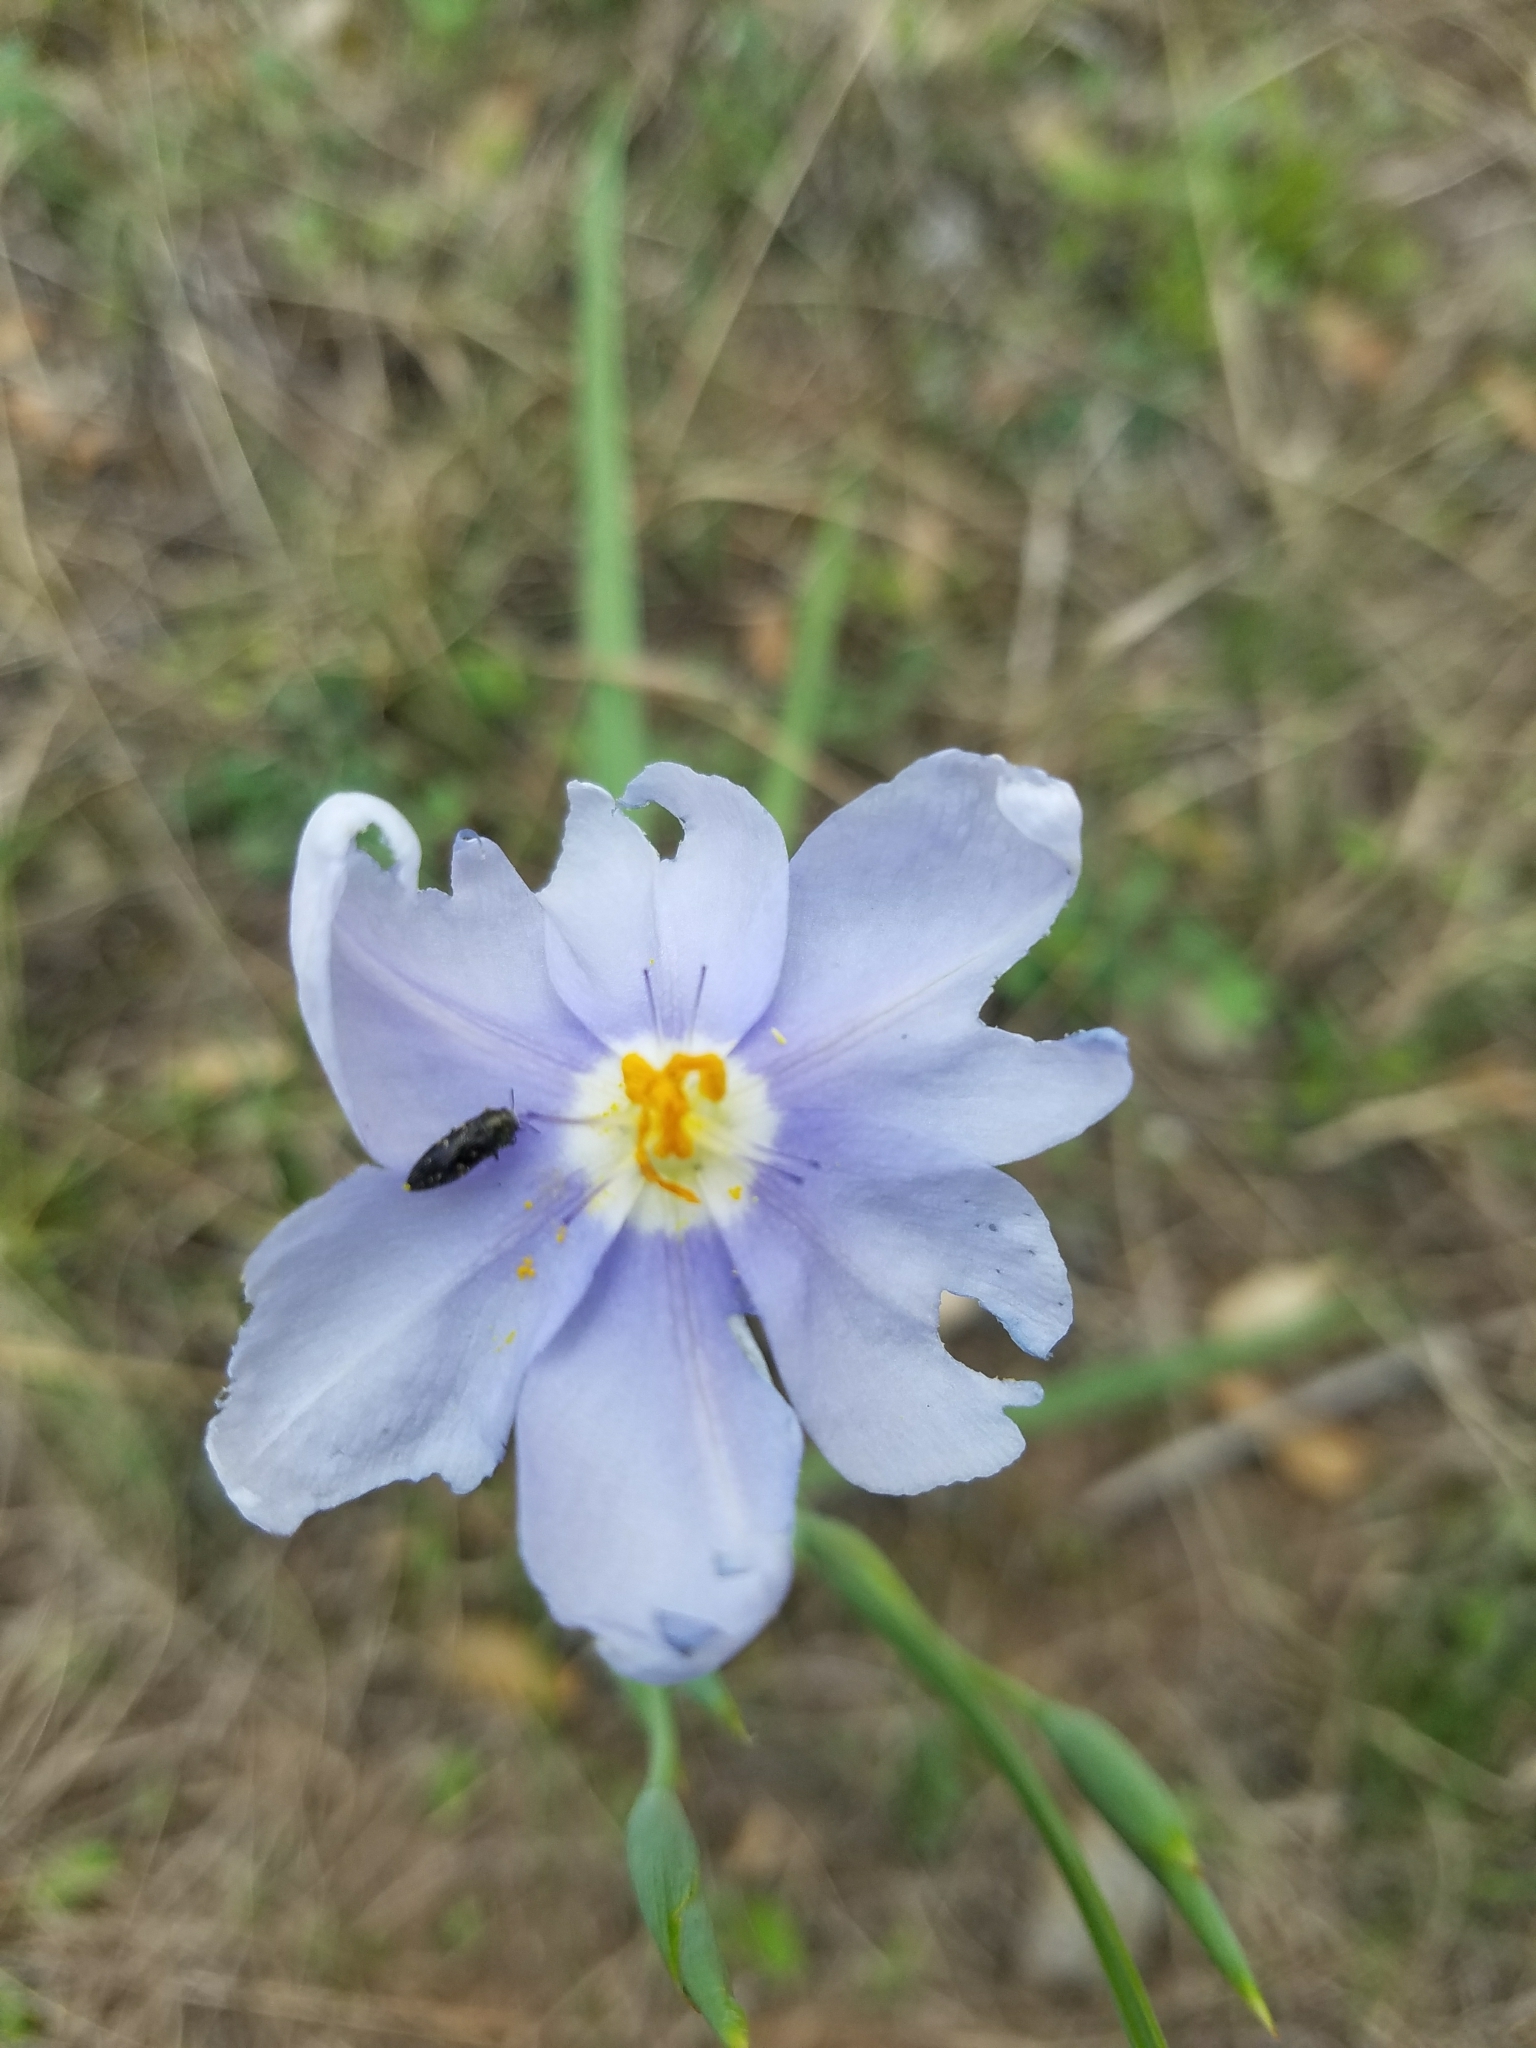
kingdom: Plantae
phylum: Tracheophyta
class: Liliopsida
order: Asparagales
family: Iridaceae
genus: Nemastylis
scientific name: Nemastylis geminiflora
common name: Prairie celestial
